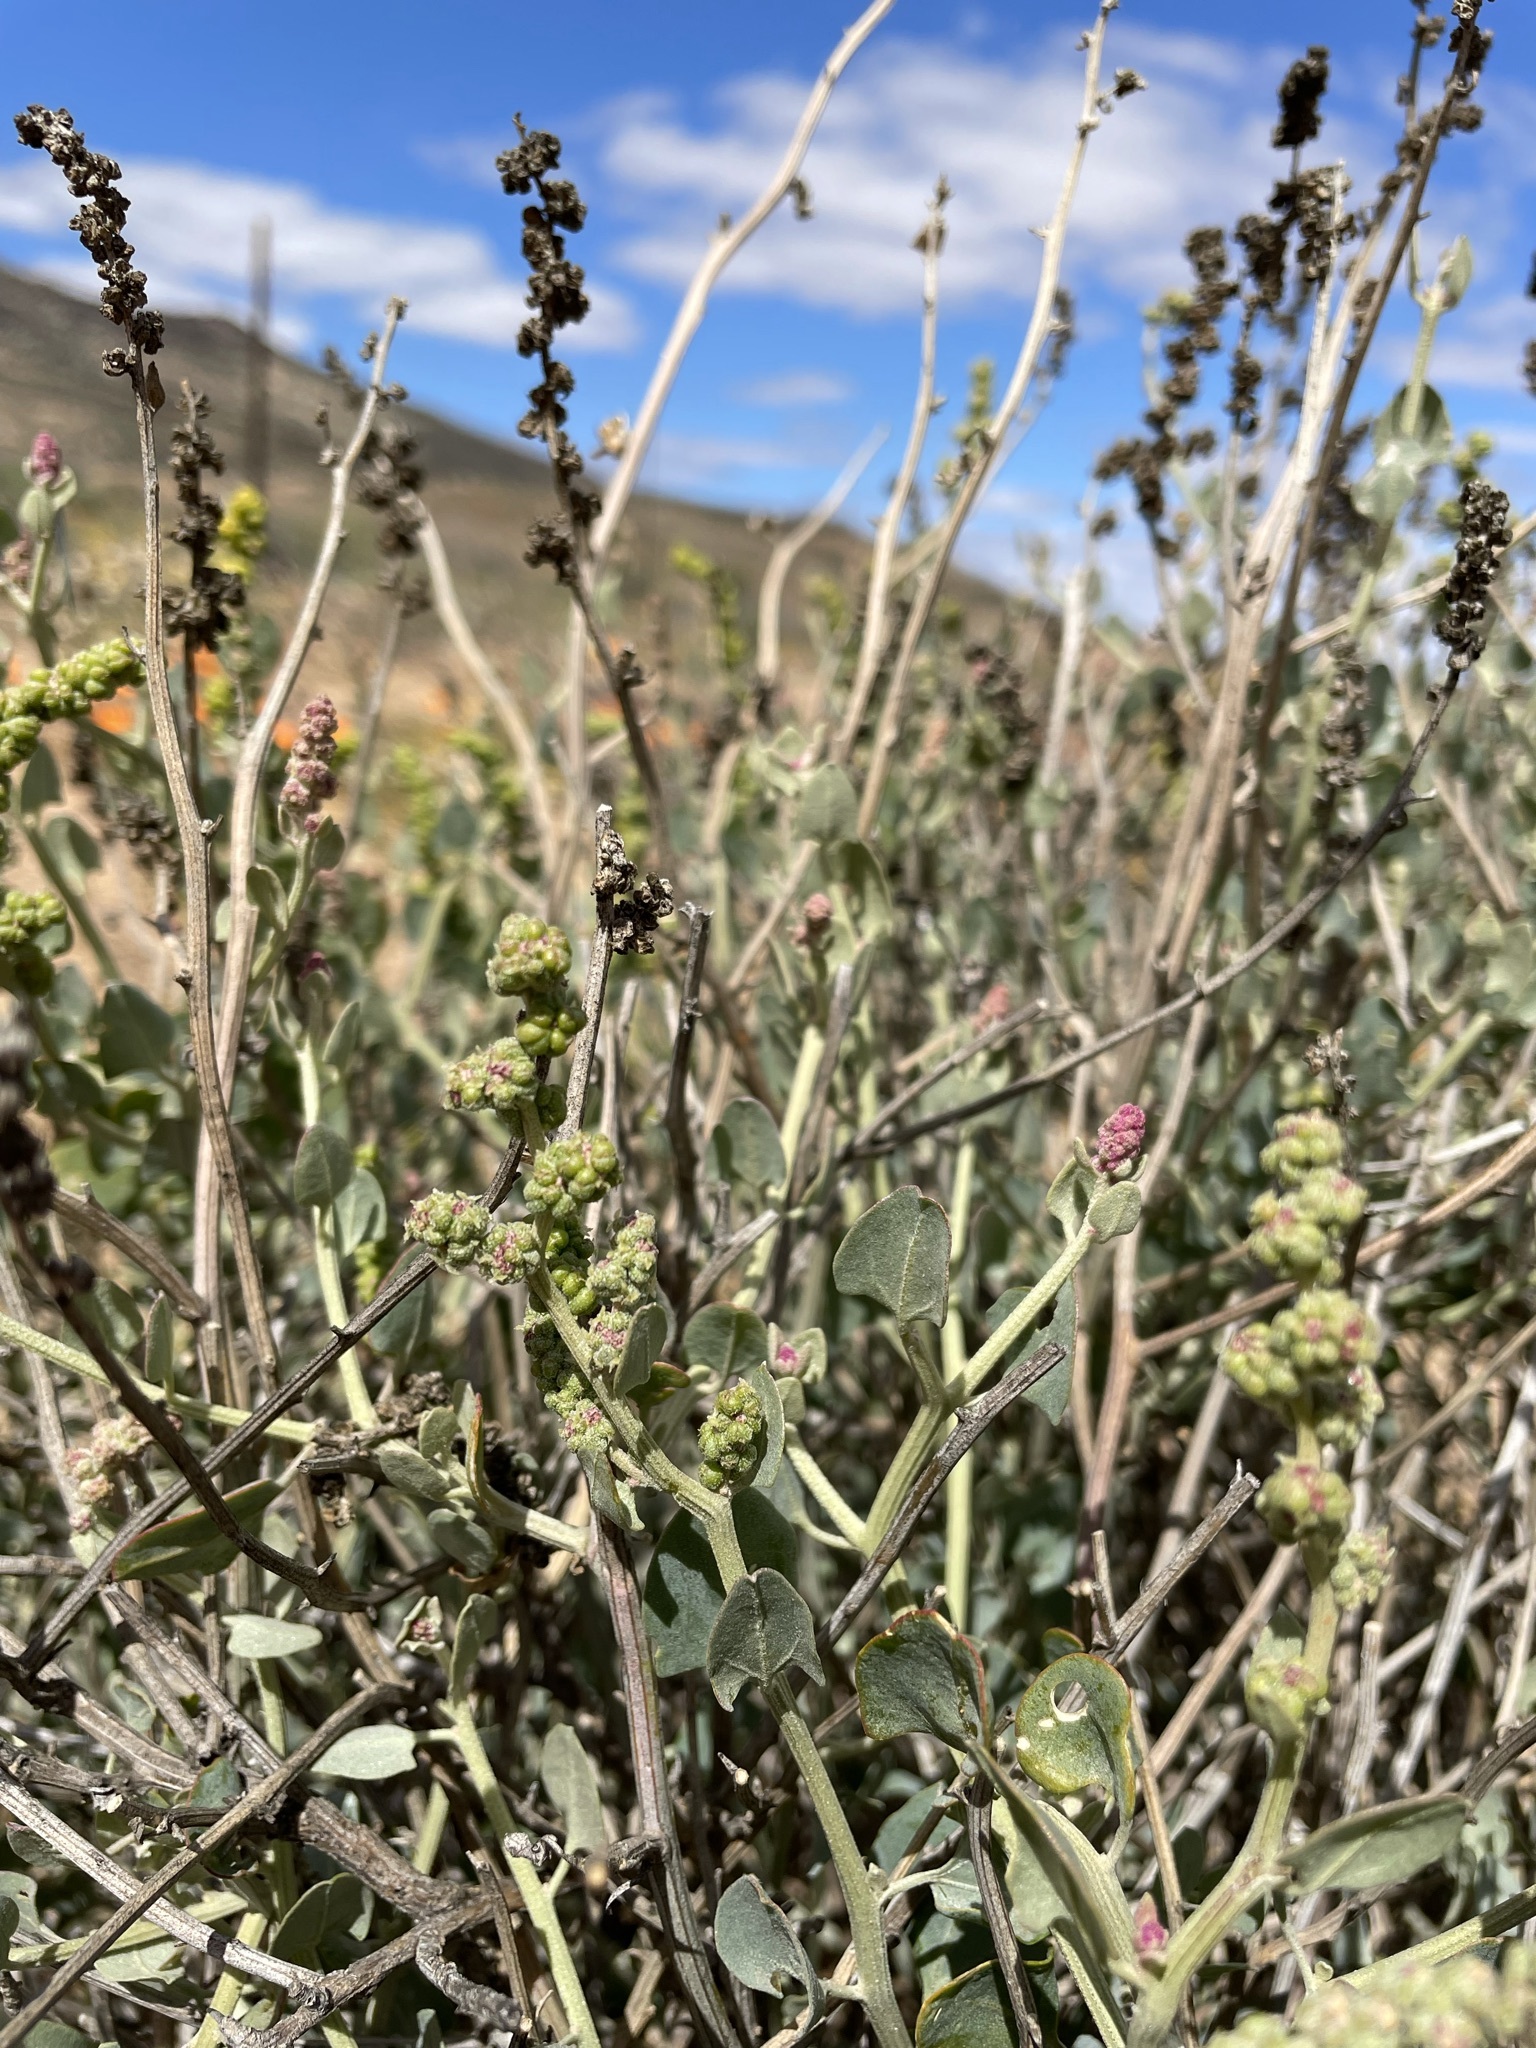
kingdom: Plantae
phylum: Tracheophyta
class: Magnoliopsida
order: Caryophyllales
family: Amaranthaceae
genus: Exomis
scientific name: Exomis albicans
